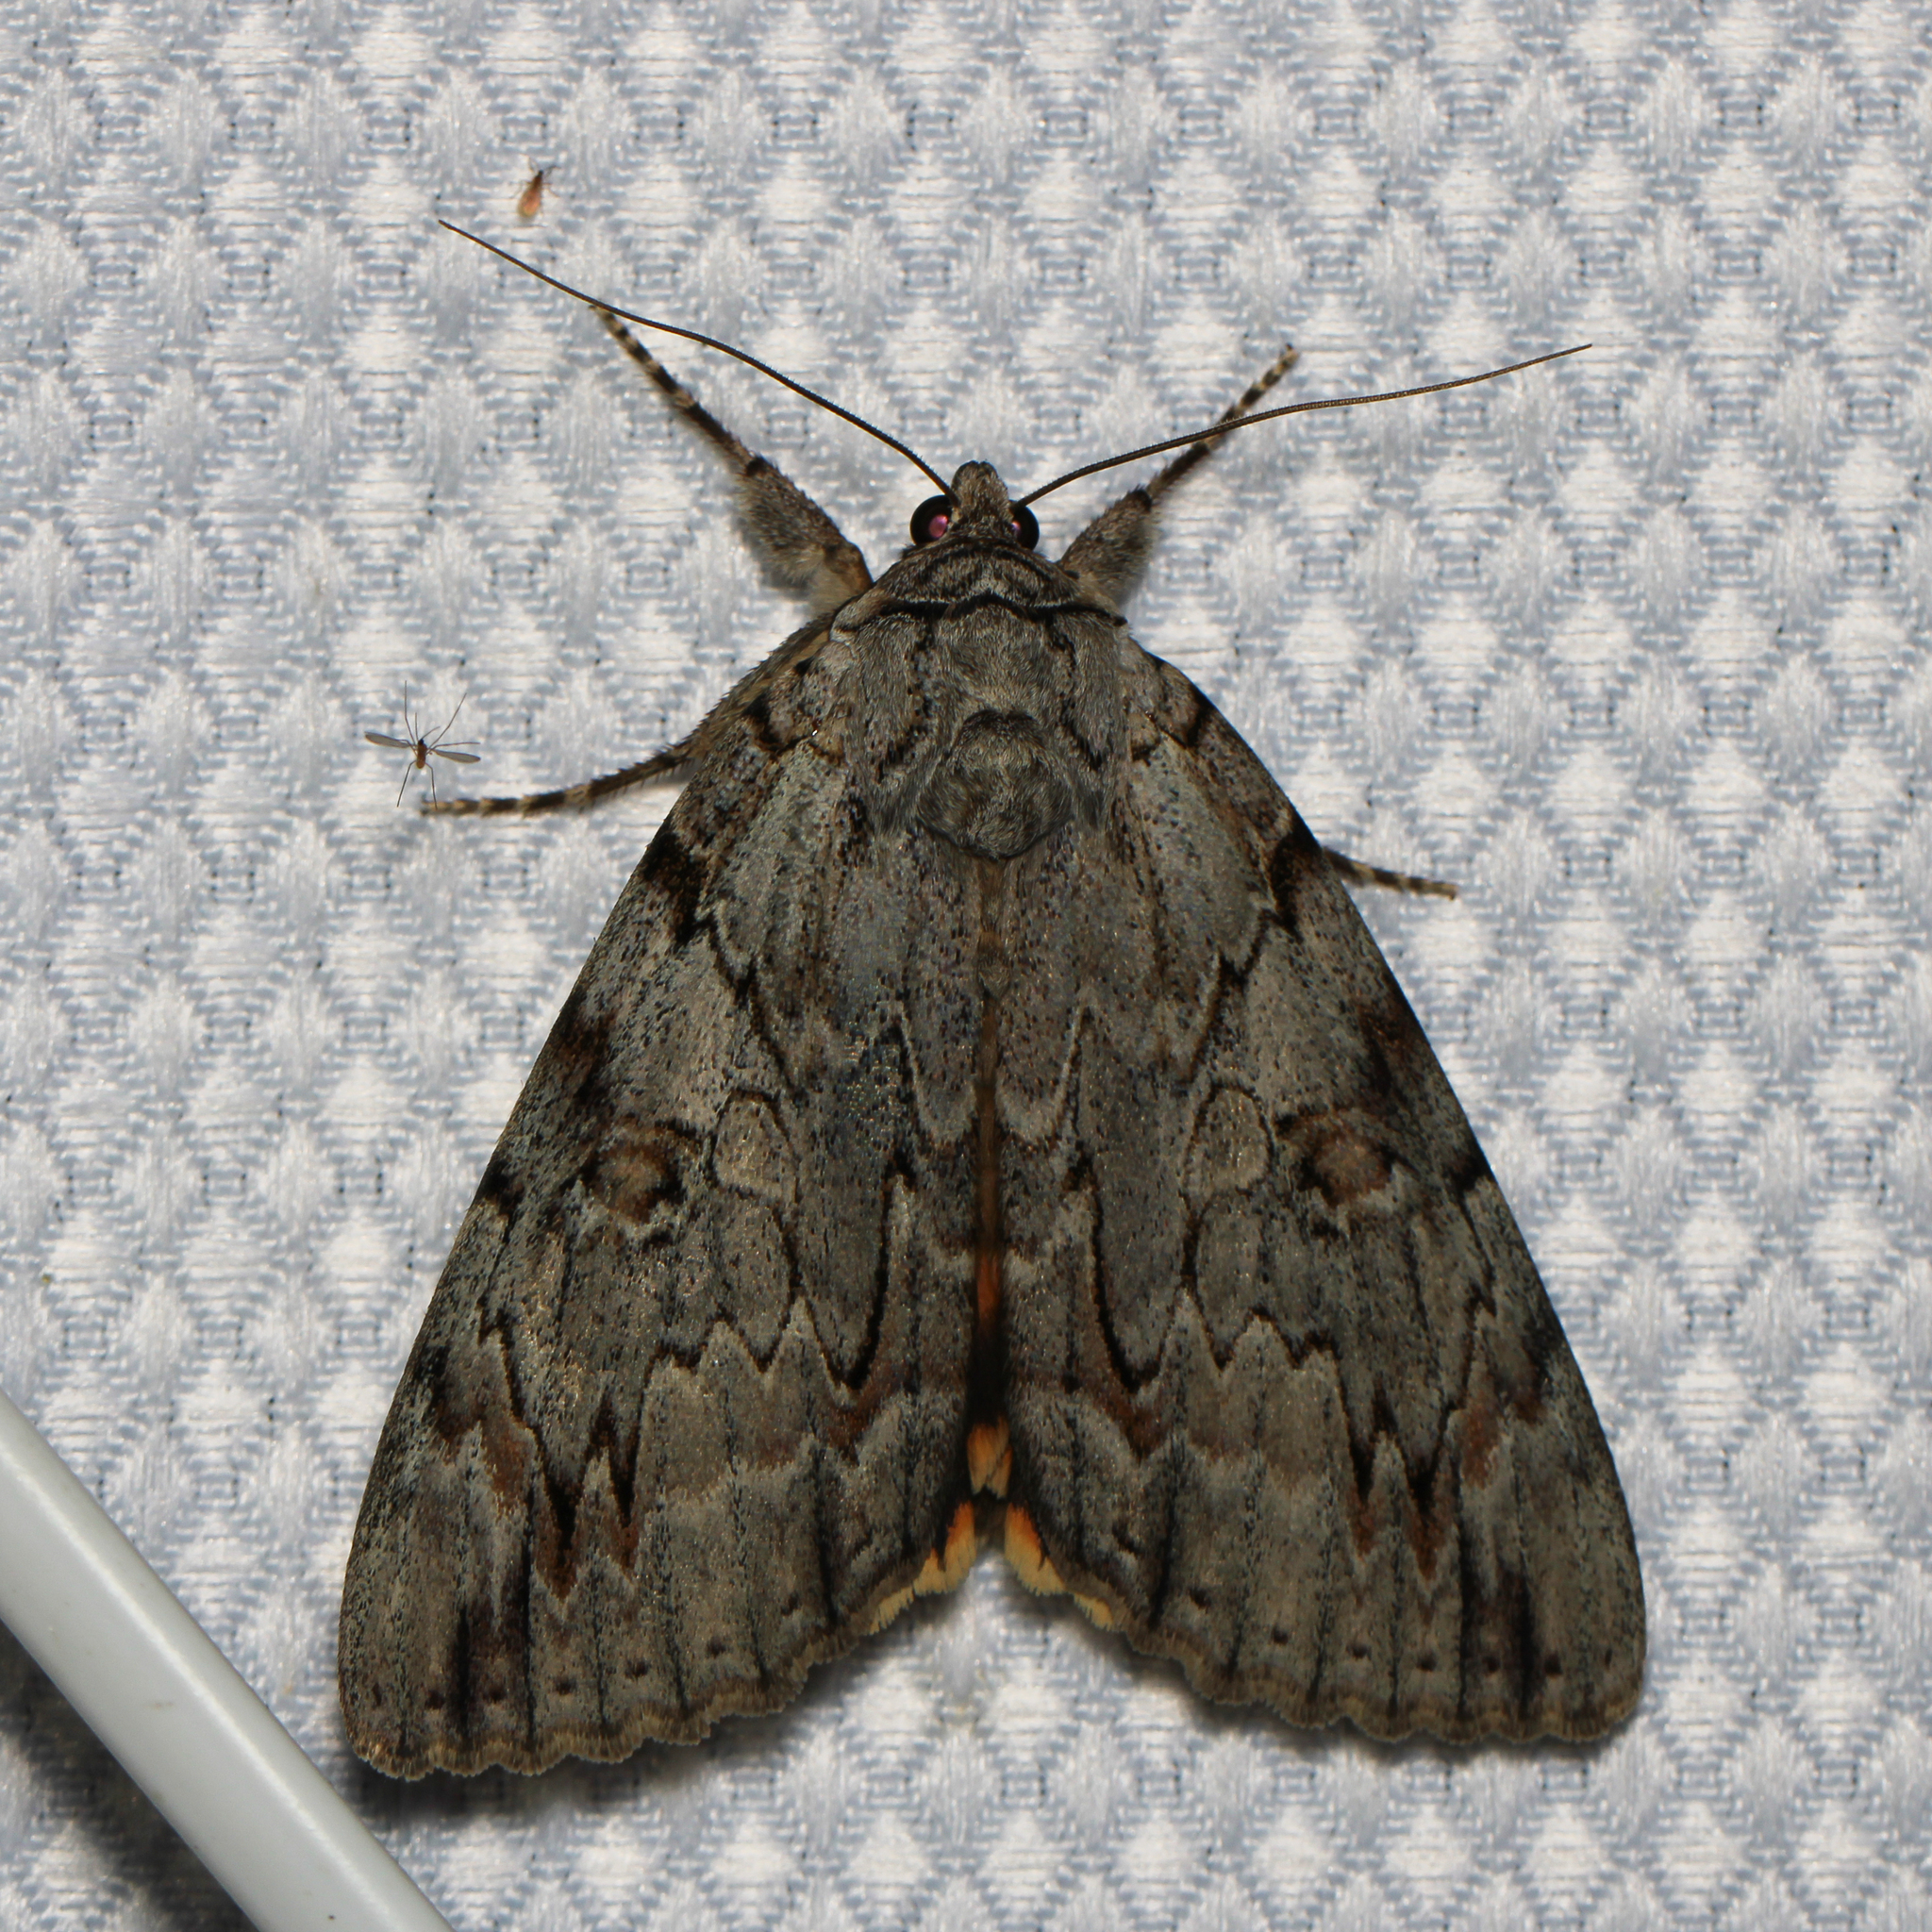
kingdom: Animalia
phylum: Arthropoda
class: Insecta
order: Lepidoptera
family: Erebidae
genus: Catocala
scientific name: Catocala subnata
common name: Youthful underwing
